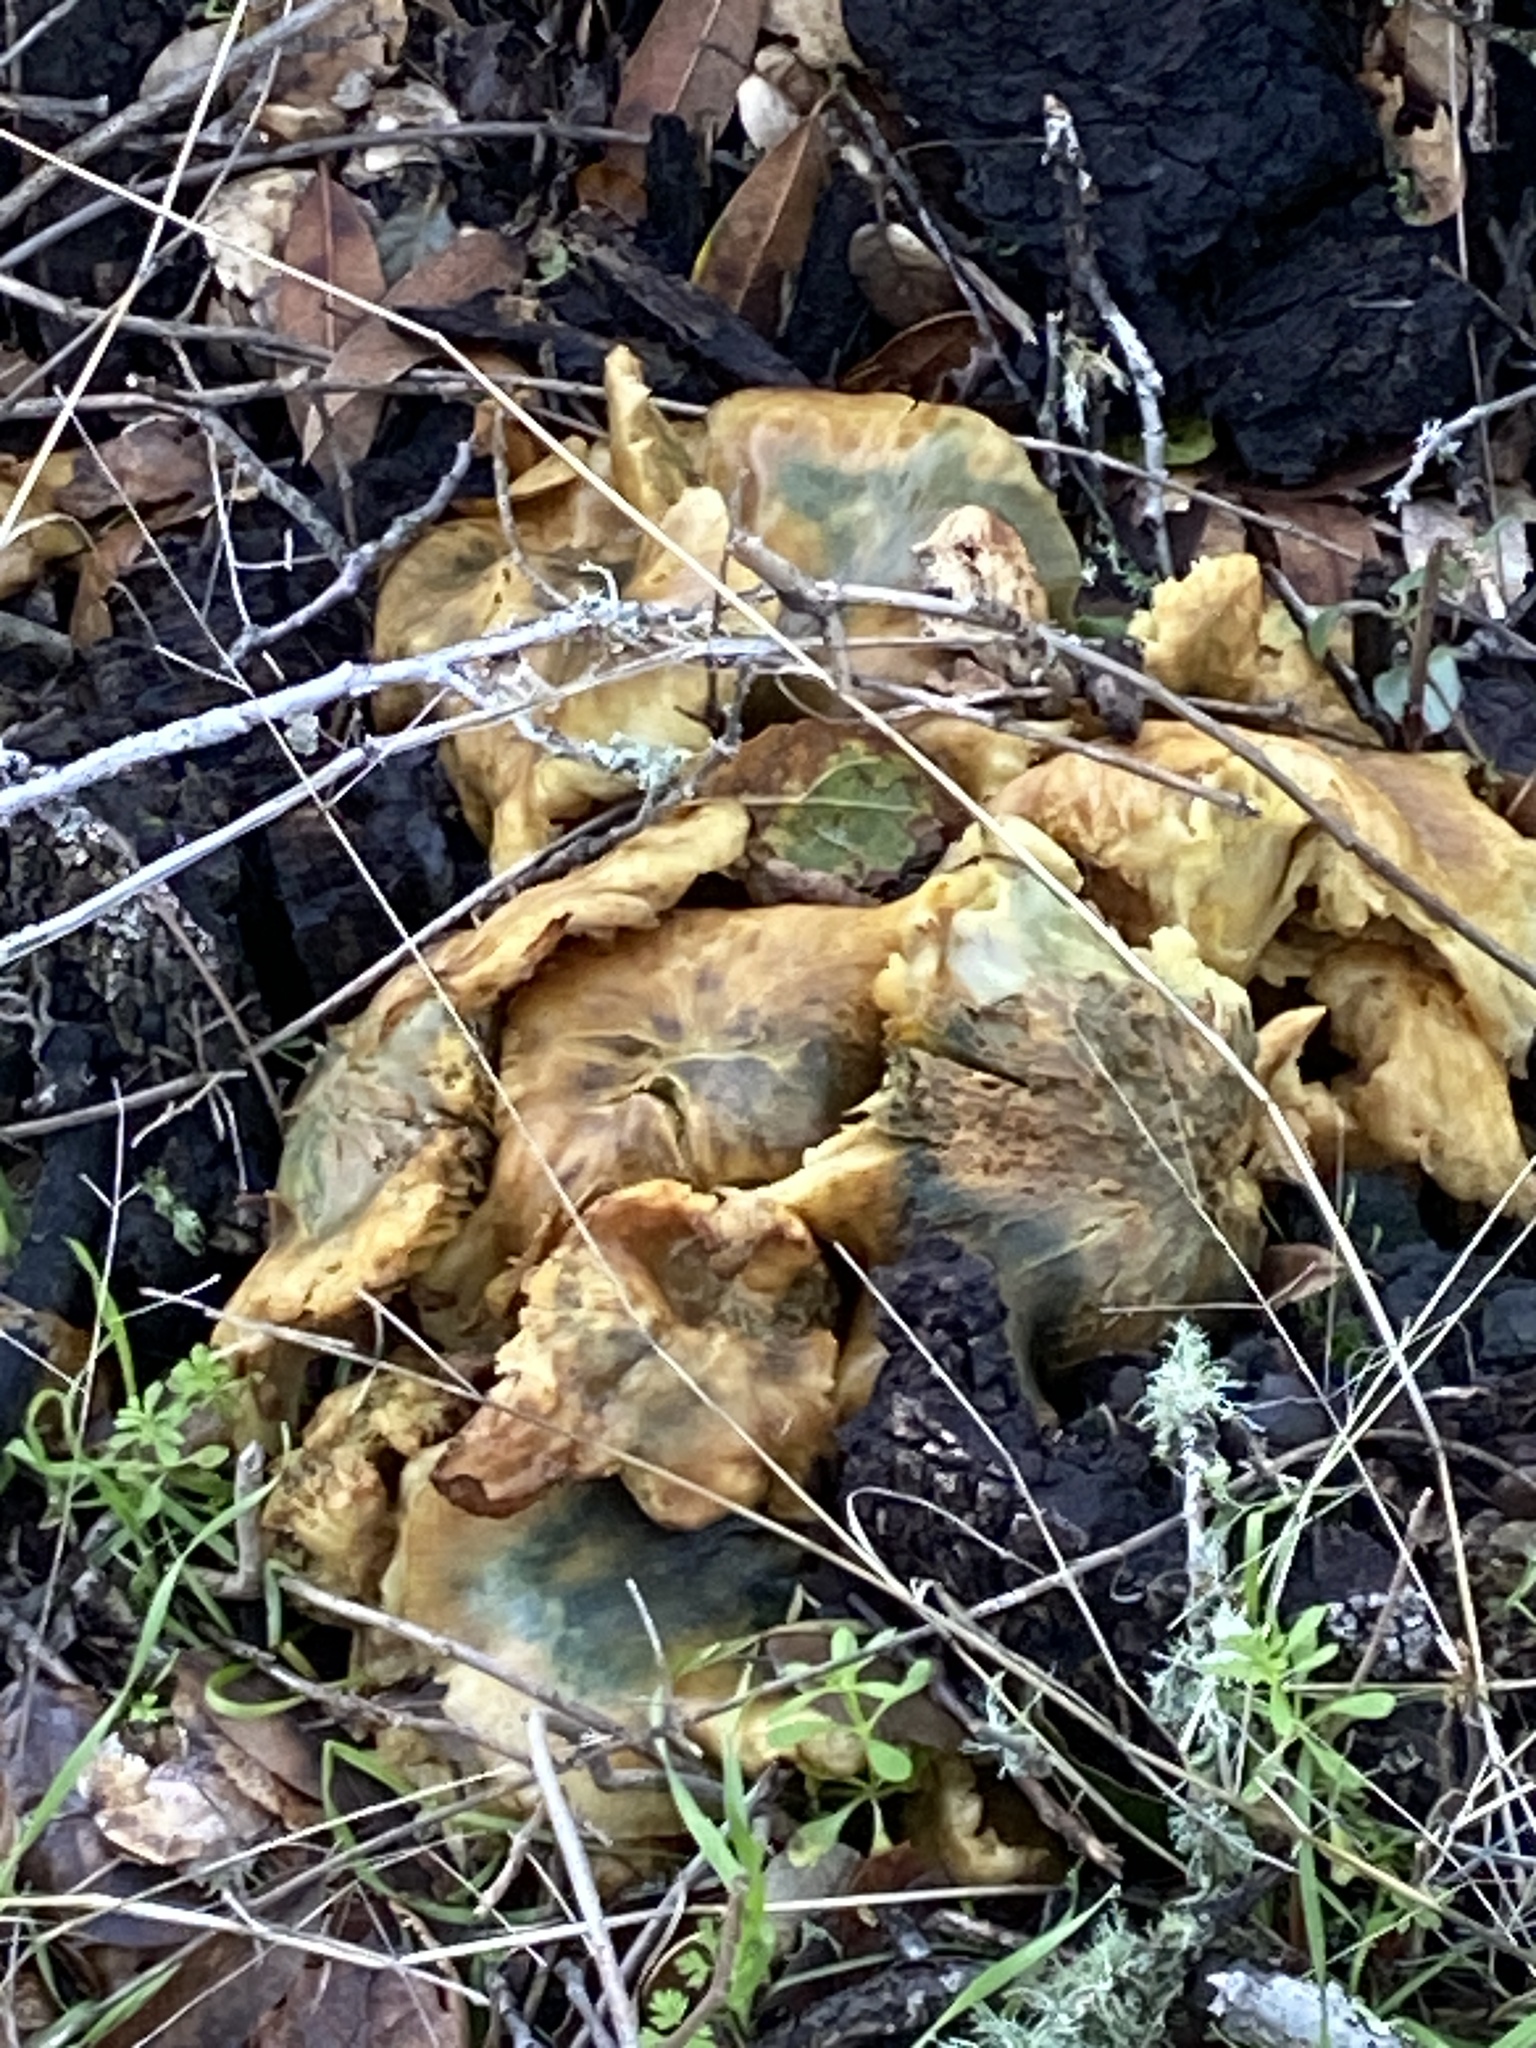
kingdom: Fungi
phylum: Basidiomycota
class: Agaricomycetes
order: Agaricales
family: Omphalotaceae
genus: Omphalotus
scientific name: Omphalotus olivascens
